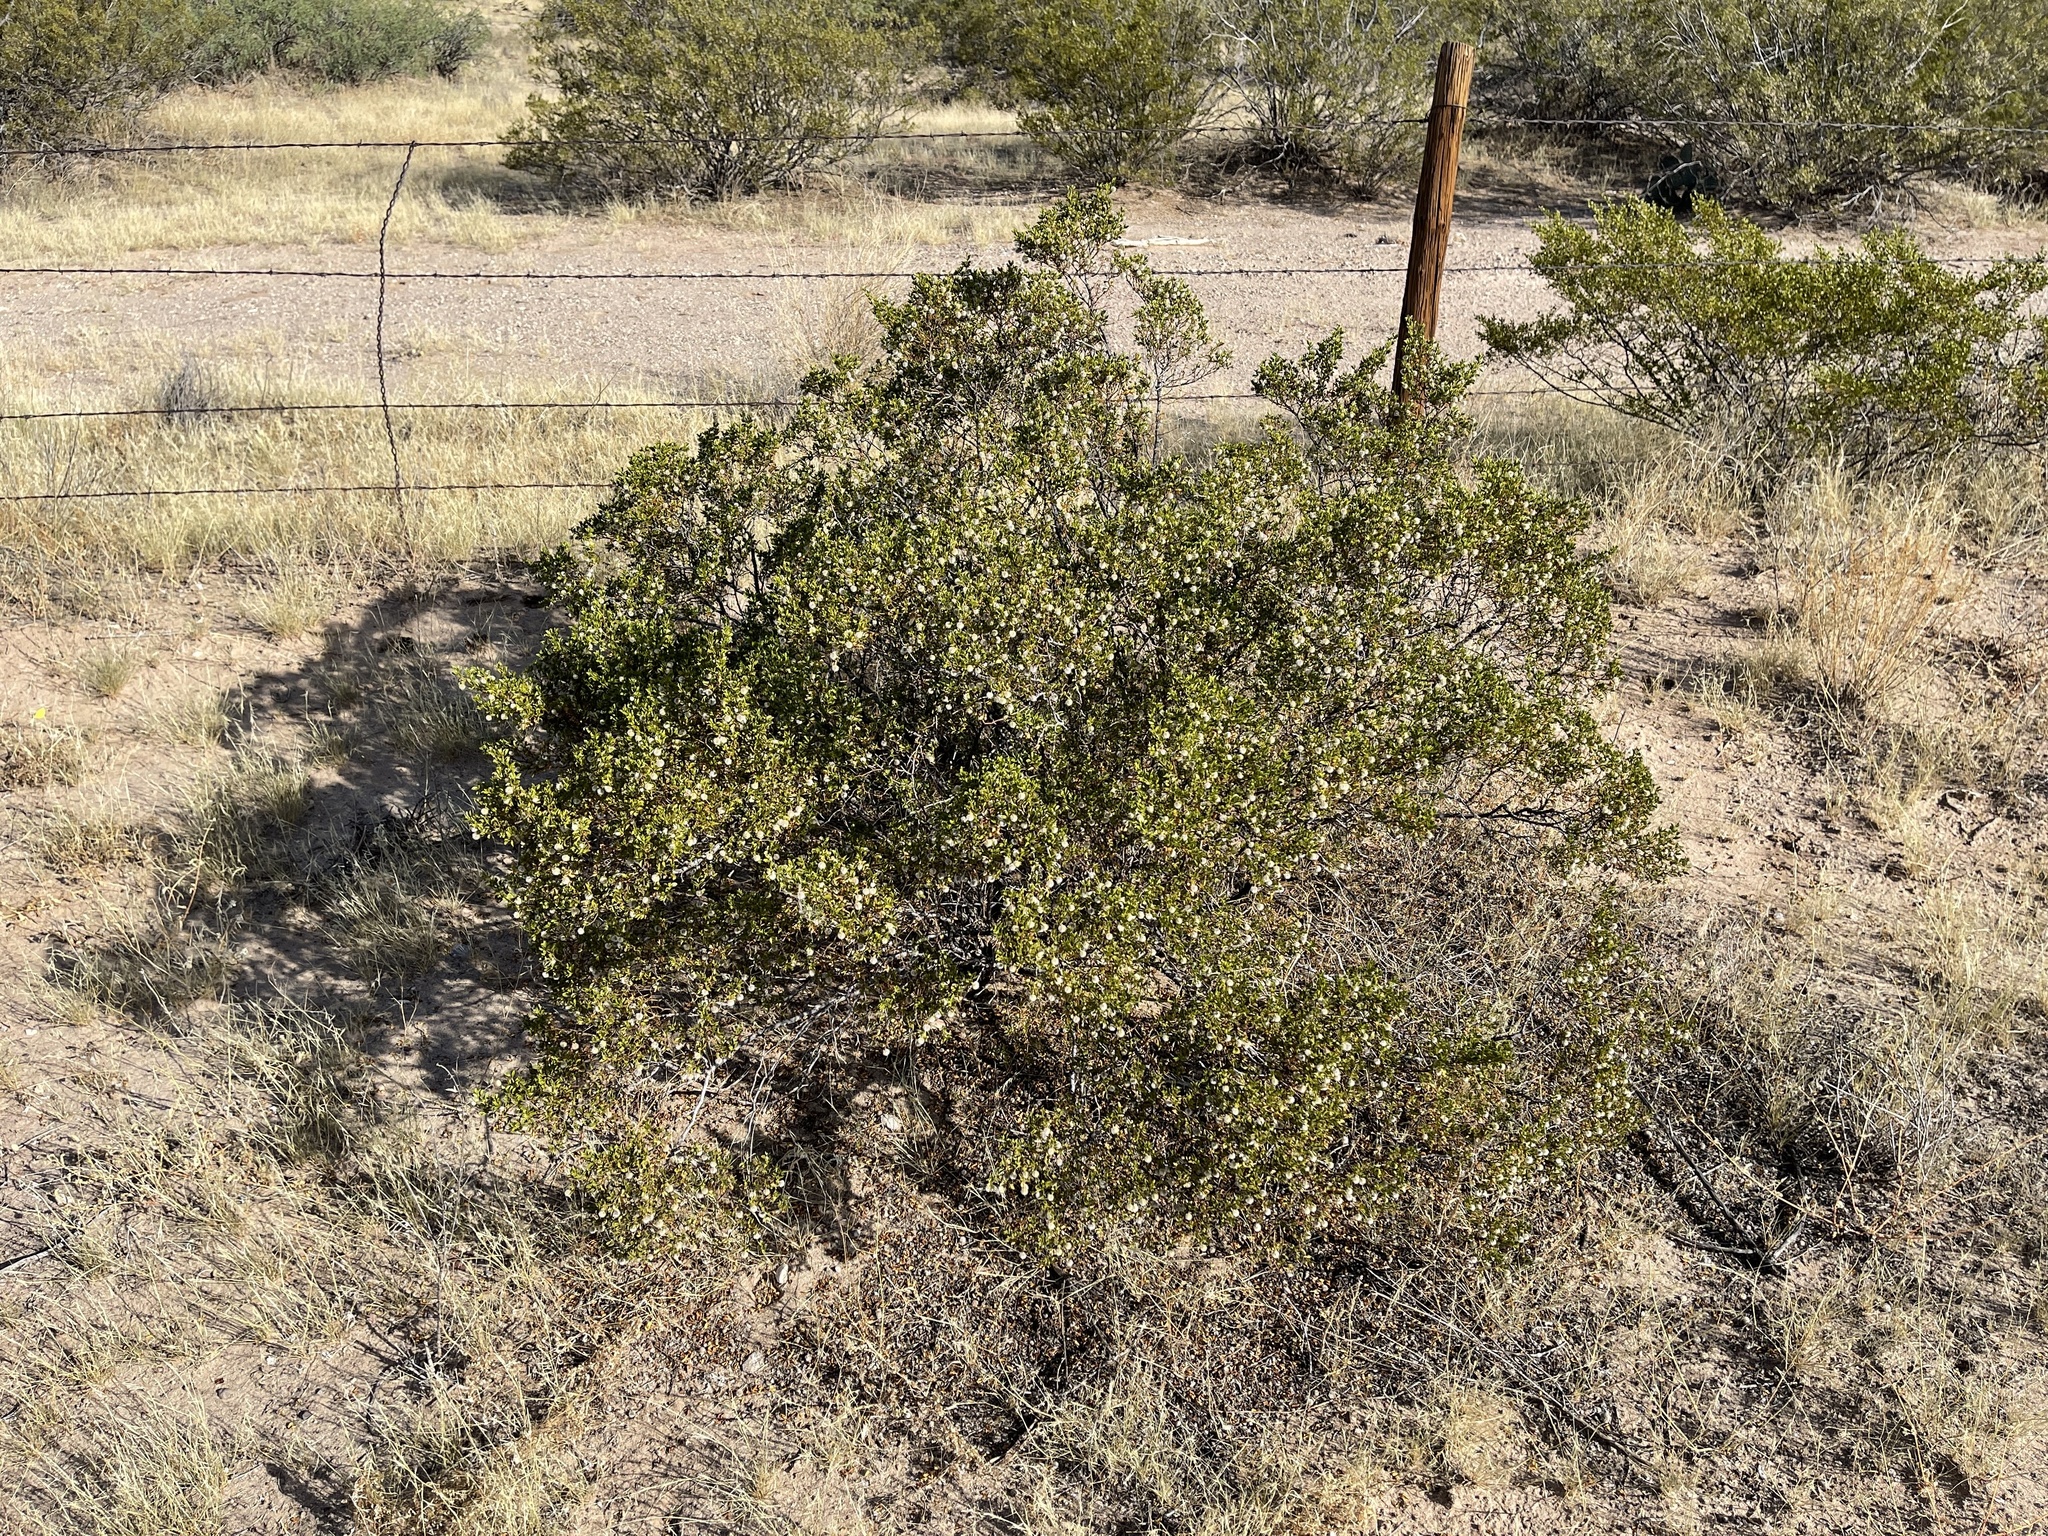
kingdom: Plantae
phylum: Tracheophyta
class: Magnoliopsida
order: Zygophyllales
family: Zygophyllaceae
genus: Larrea
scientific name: Larrea tridentata
